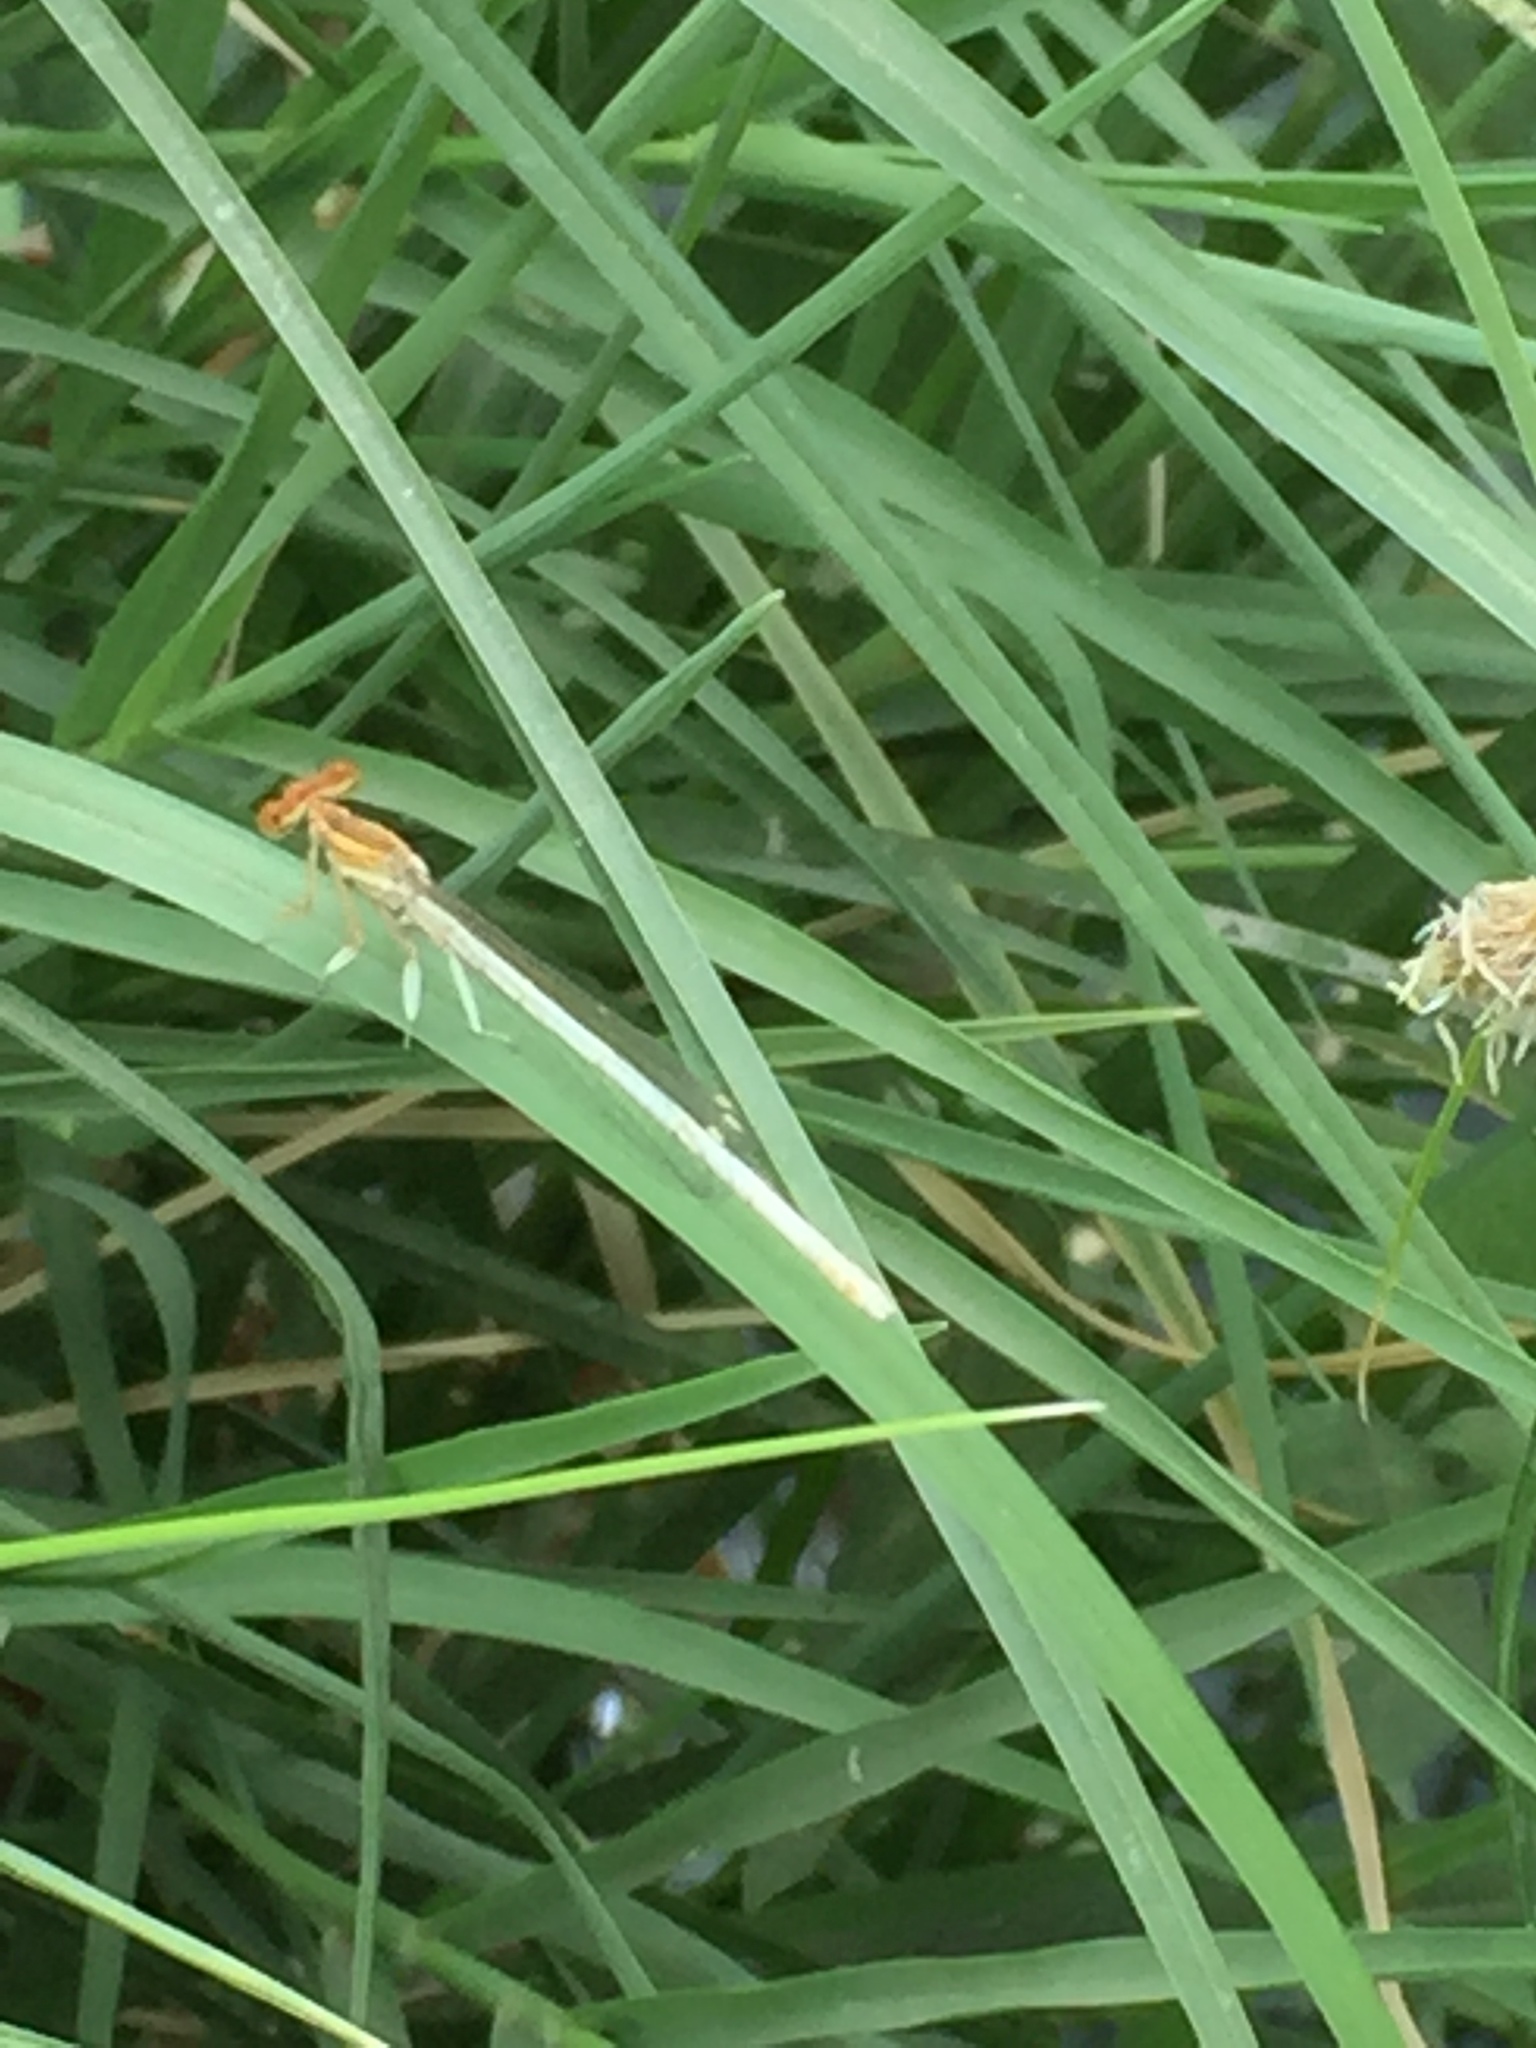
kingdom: Animalia
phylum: Arthropoda
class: Insecta
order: Odonata
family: Platycnemididae
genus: Platycnemis
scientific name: Platycnemis dealbata
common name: Ivory featherleg
